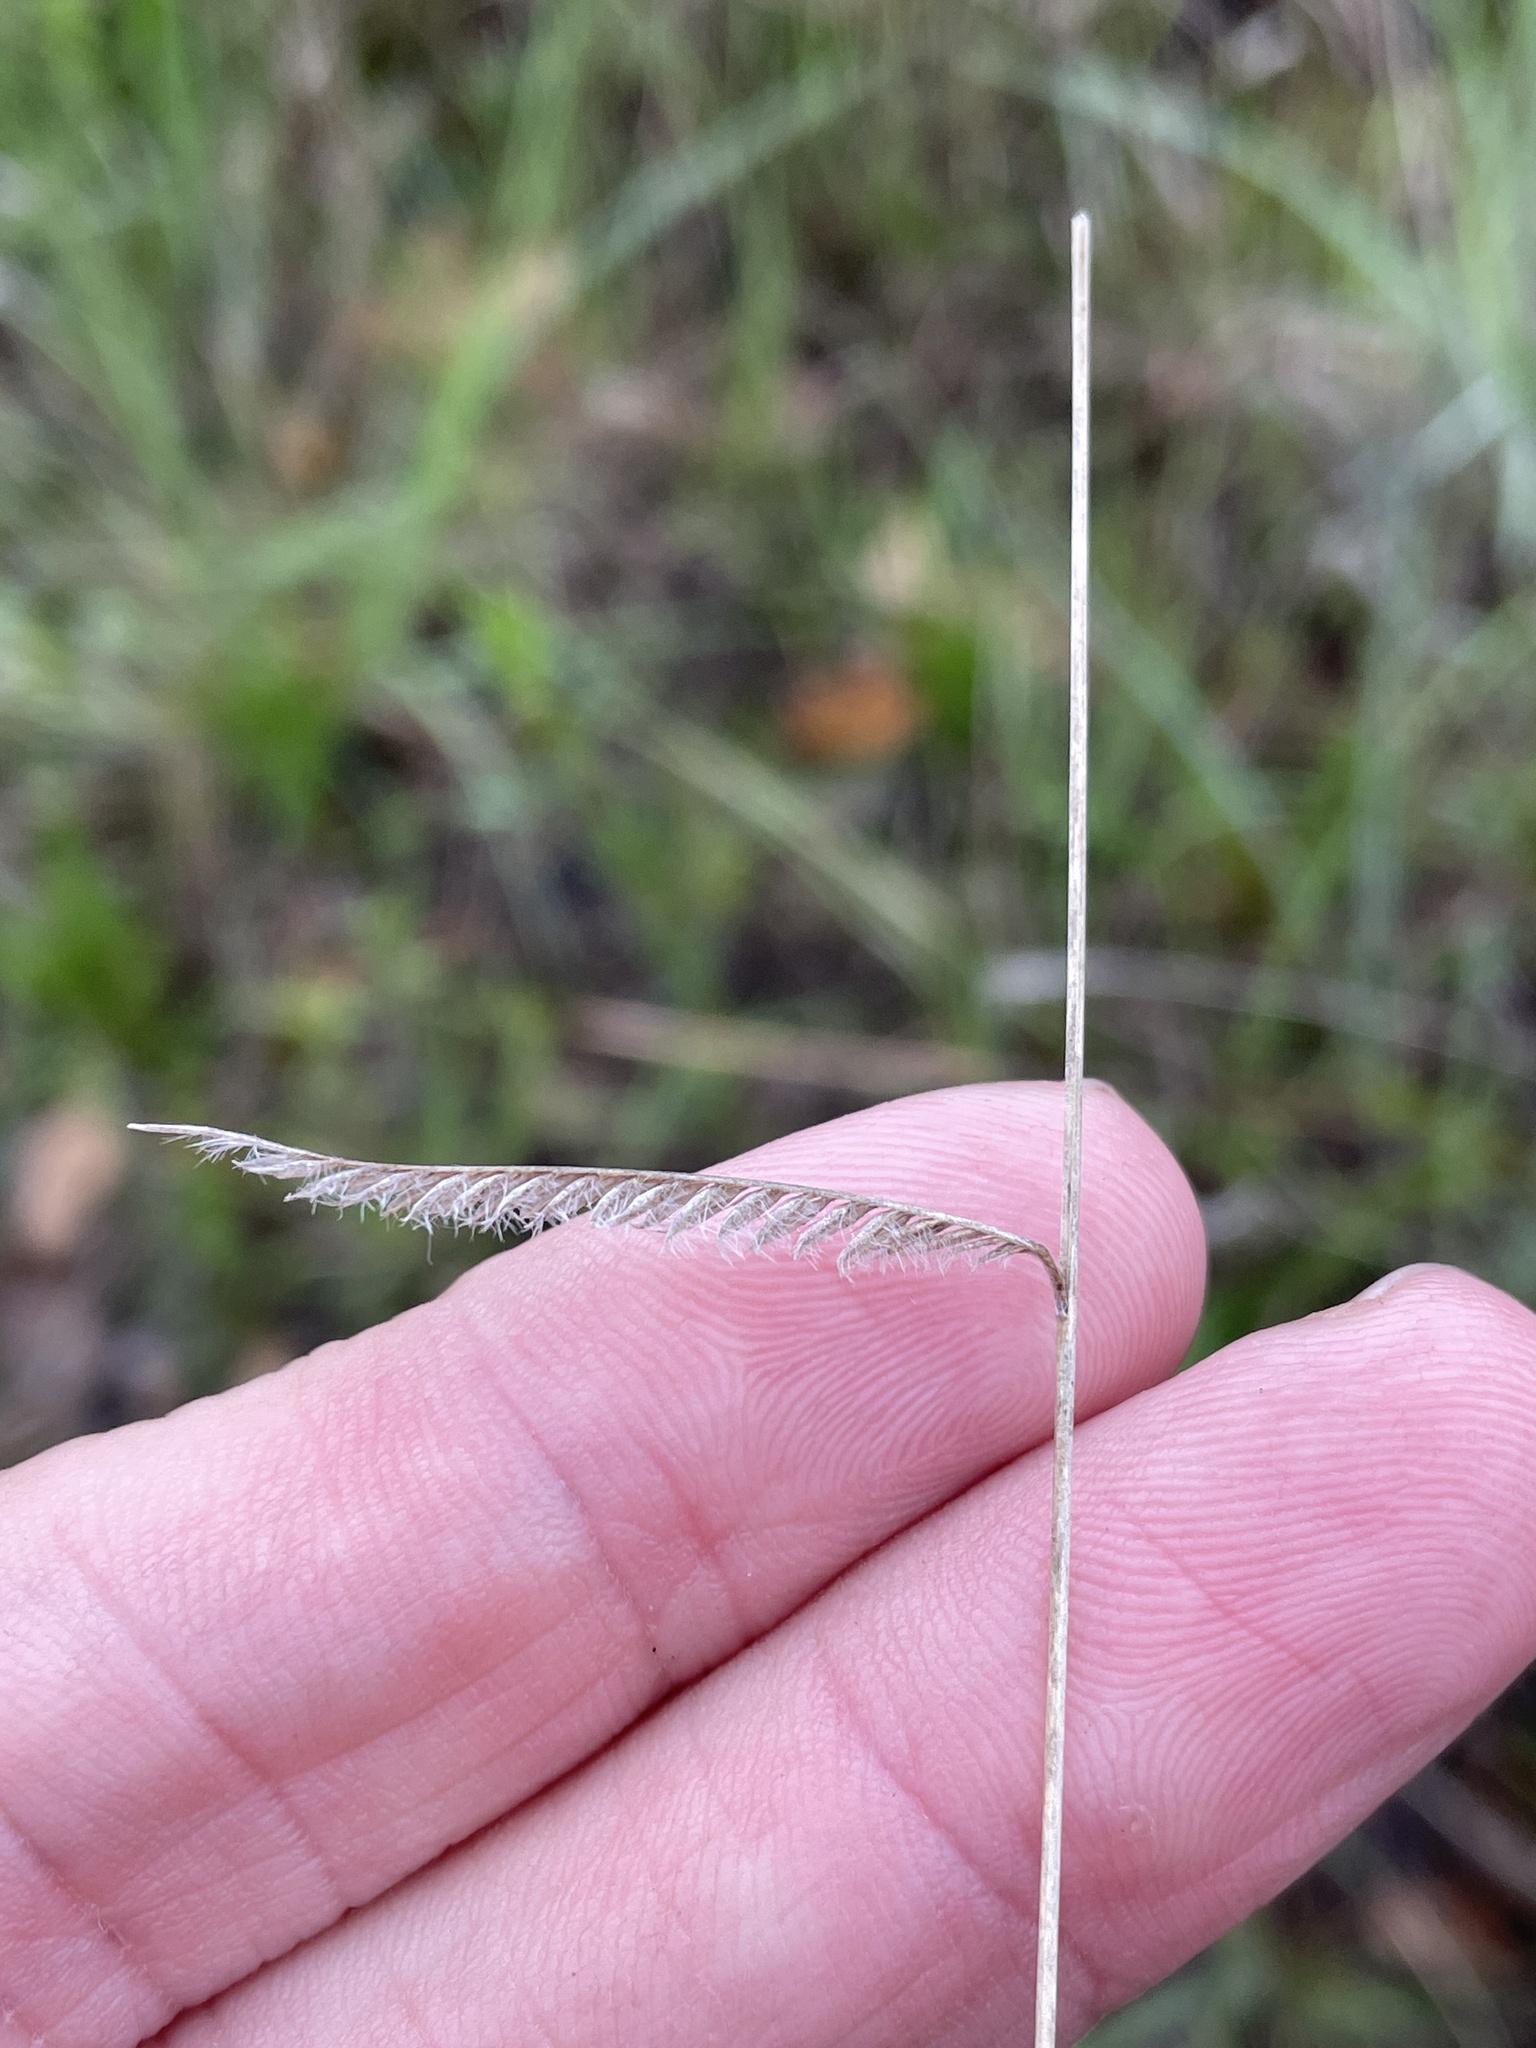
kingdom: Plantae
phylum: Tracheophyta
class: Liliopsida
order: Poales
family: Poaceae
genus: Bouteloua
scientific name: Bouteloua pectinata
